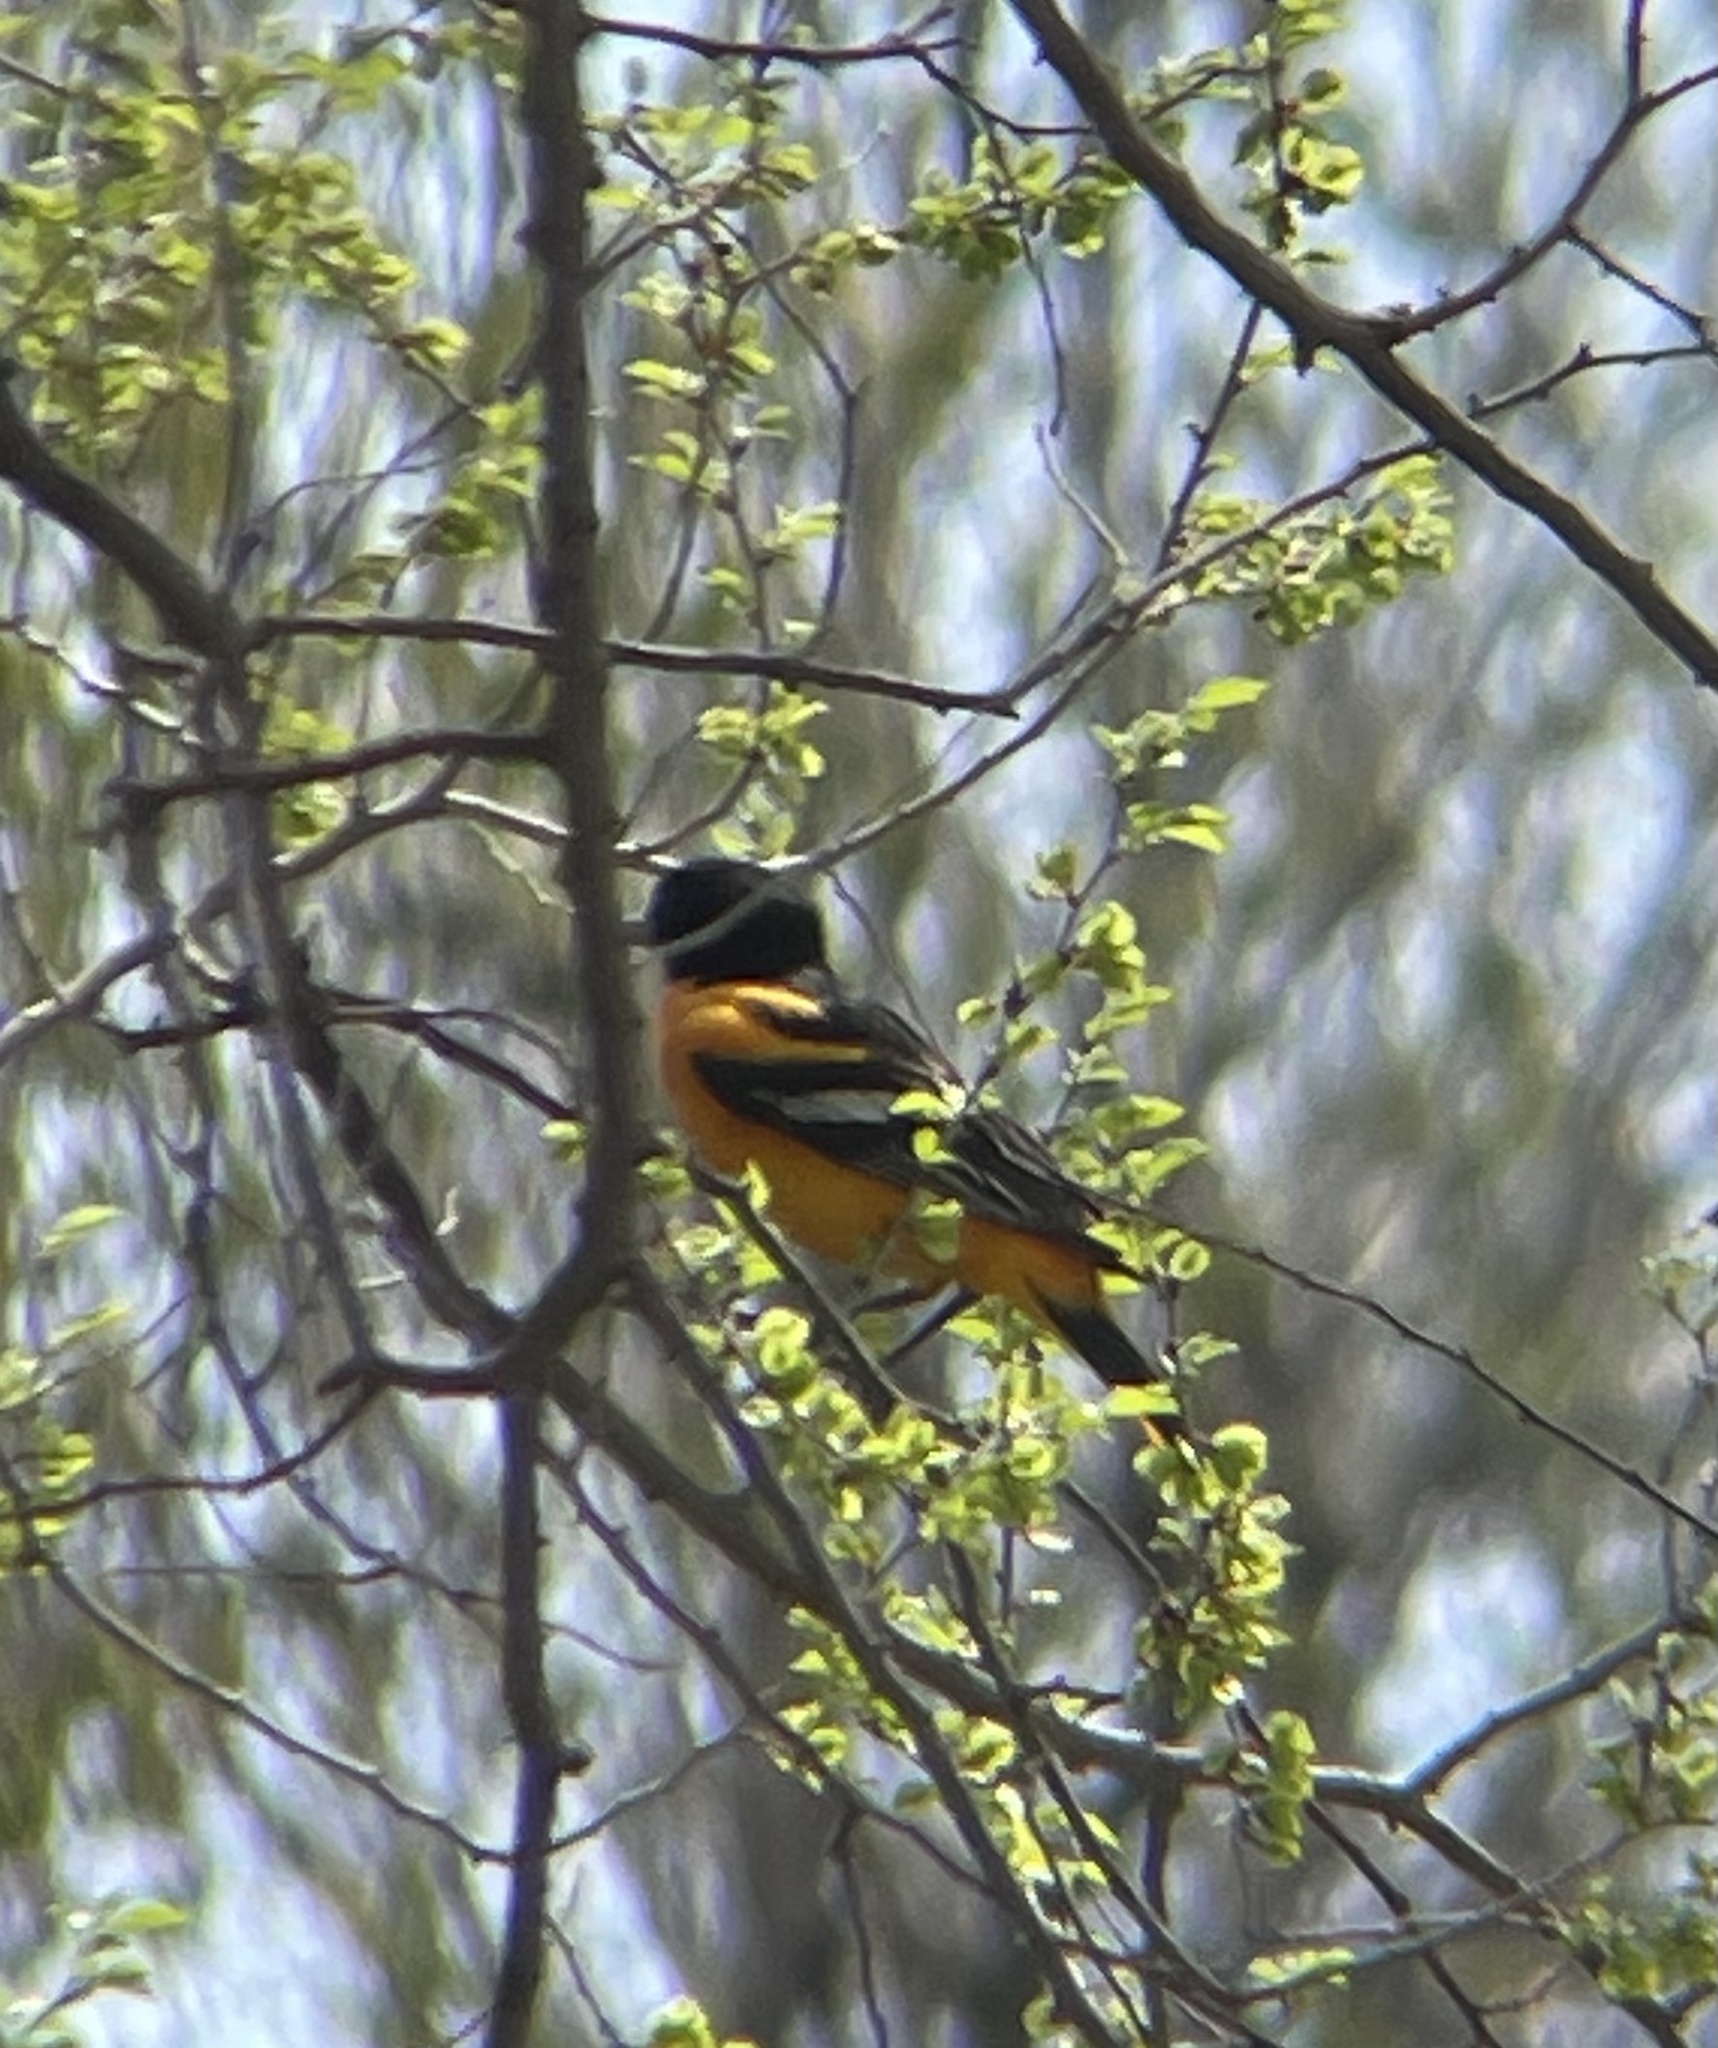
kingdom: Animalia
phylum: Chordata
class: Aves
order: Passeriformes
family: Icteridae
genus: Icterus
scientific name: Icterus galbula
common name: Baltimore oriole
